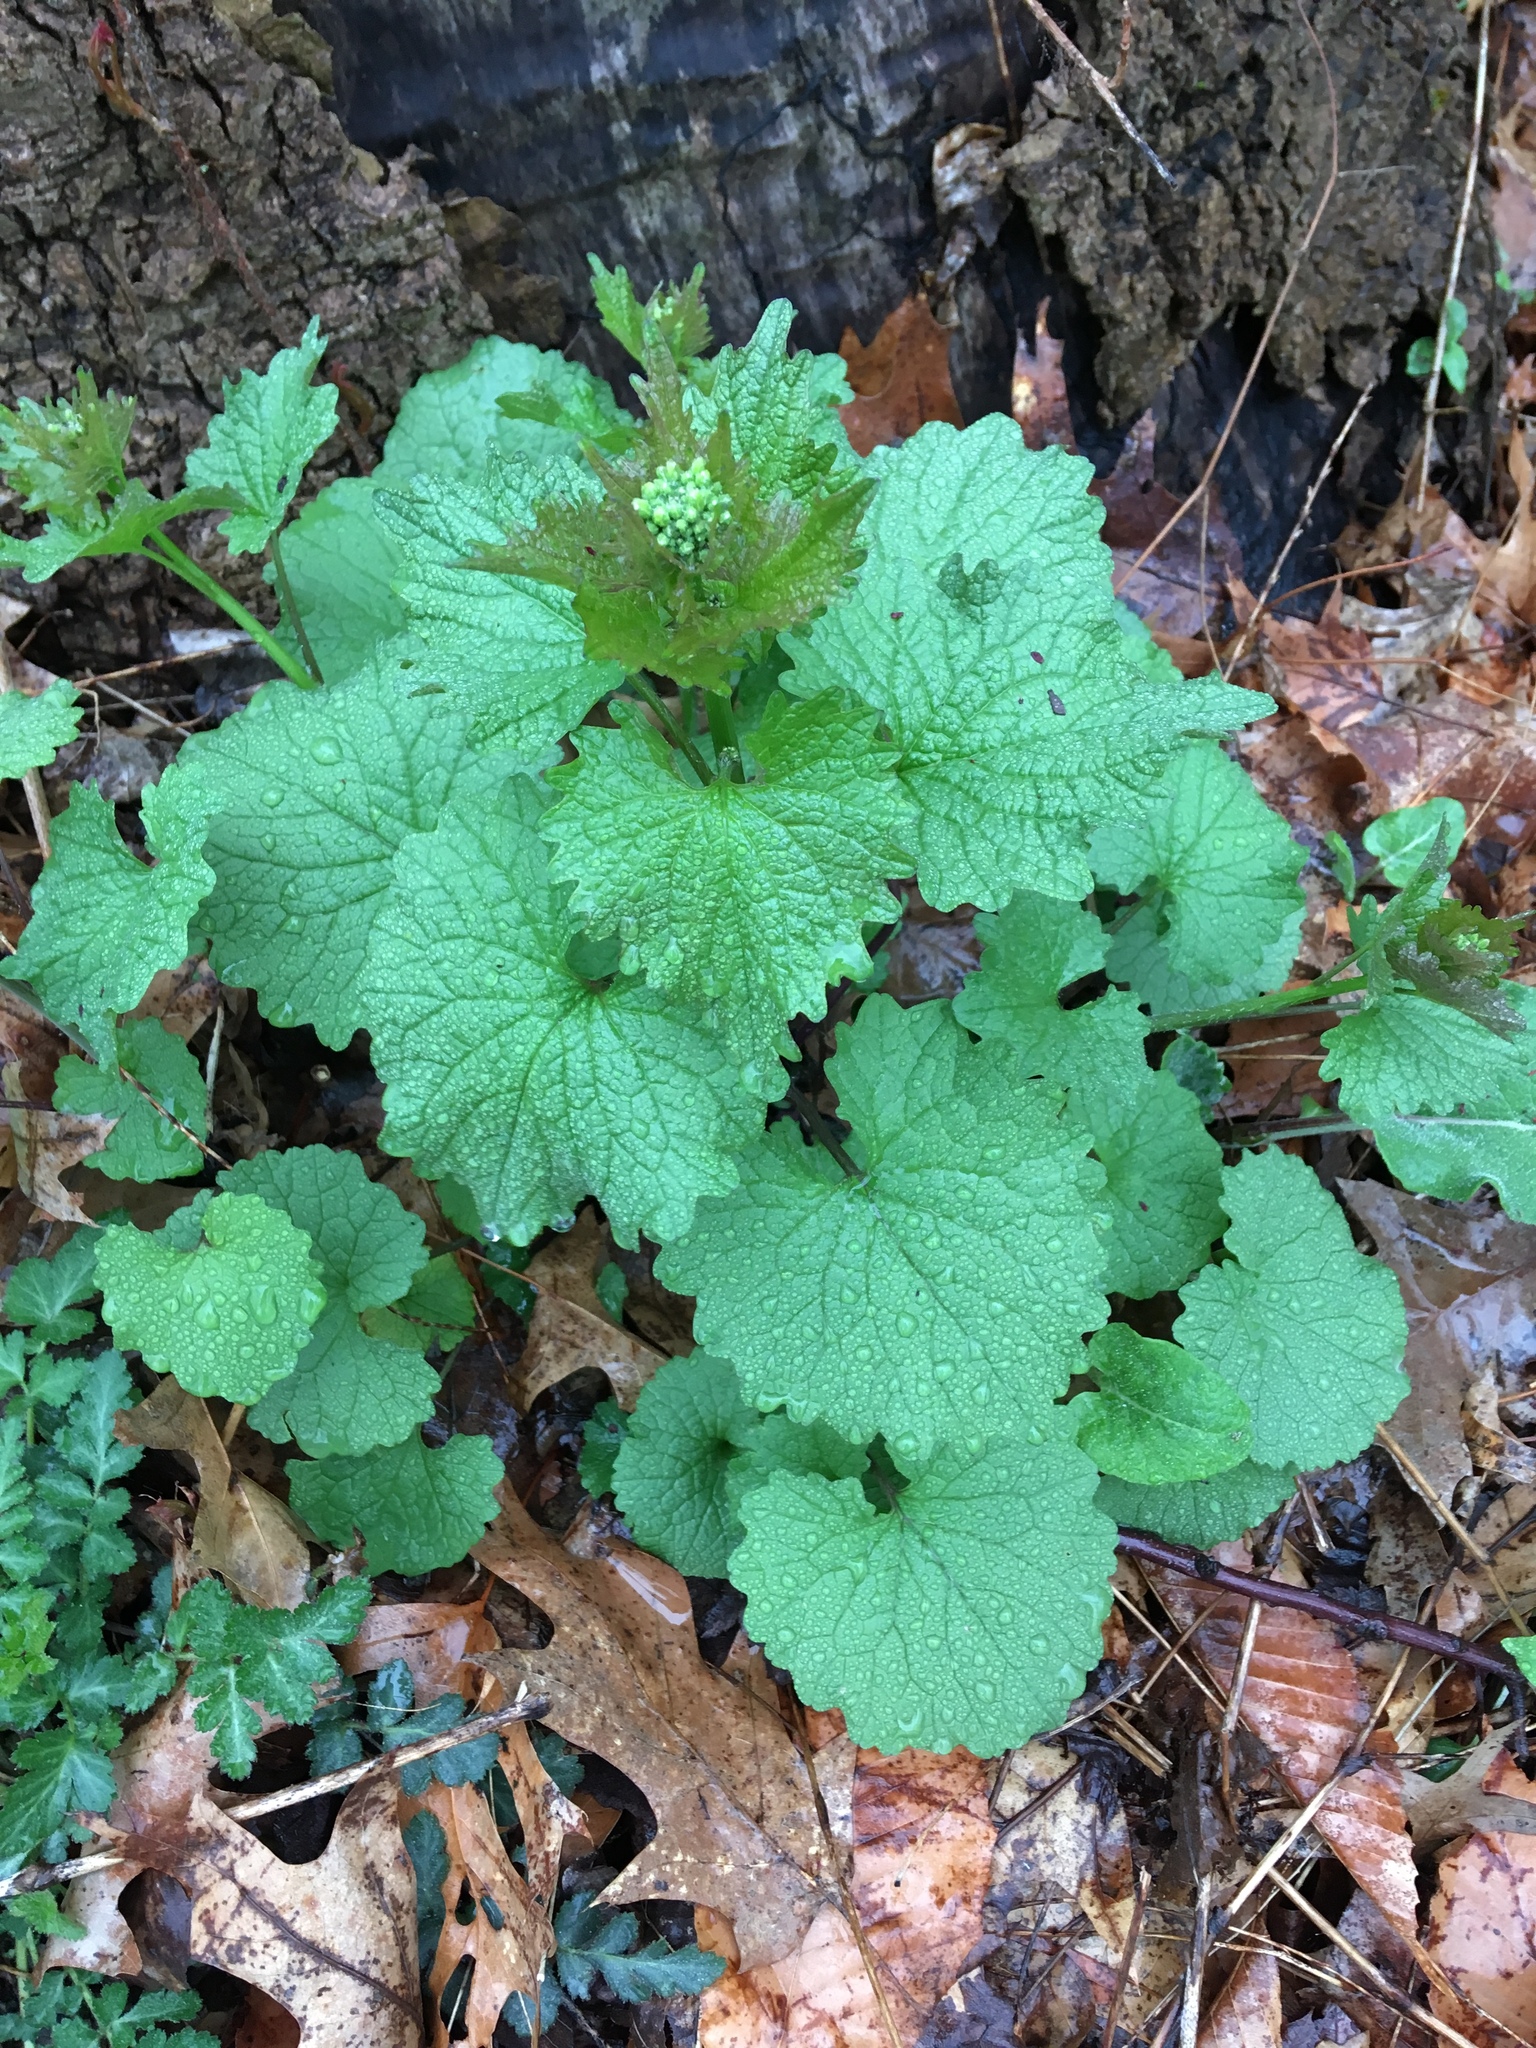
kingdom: Plantae
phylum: Tracheophyta
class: Magnoliopsida
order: Brassicales
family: Brassicaceae
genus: Alliaria
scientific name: Alliaria petiolata
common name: Garlic mustard
